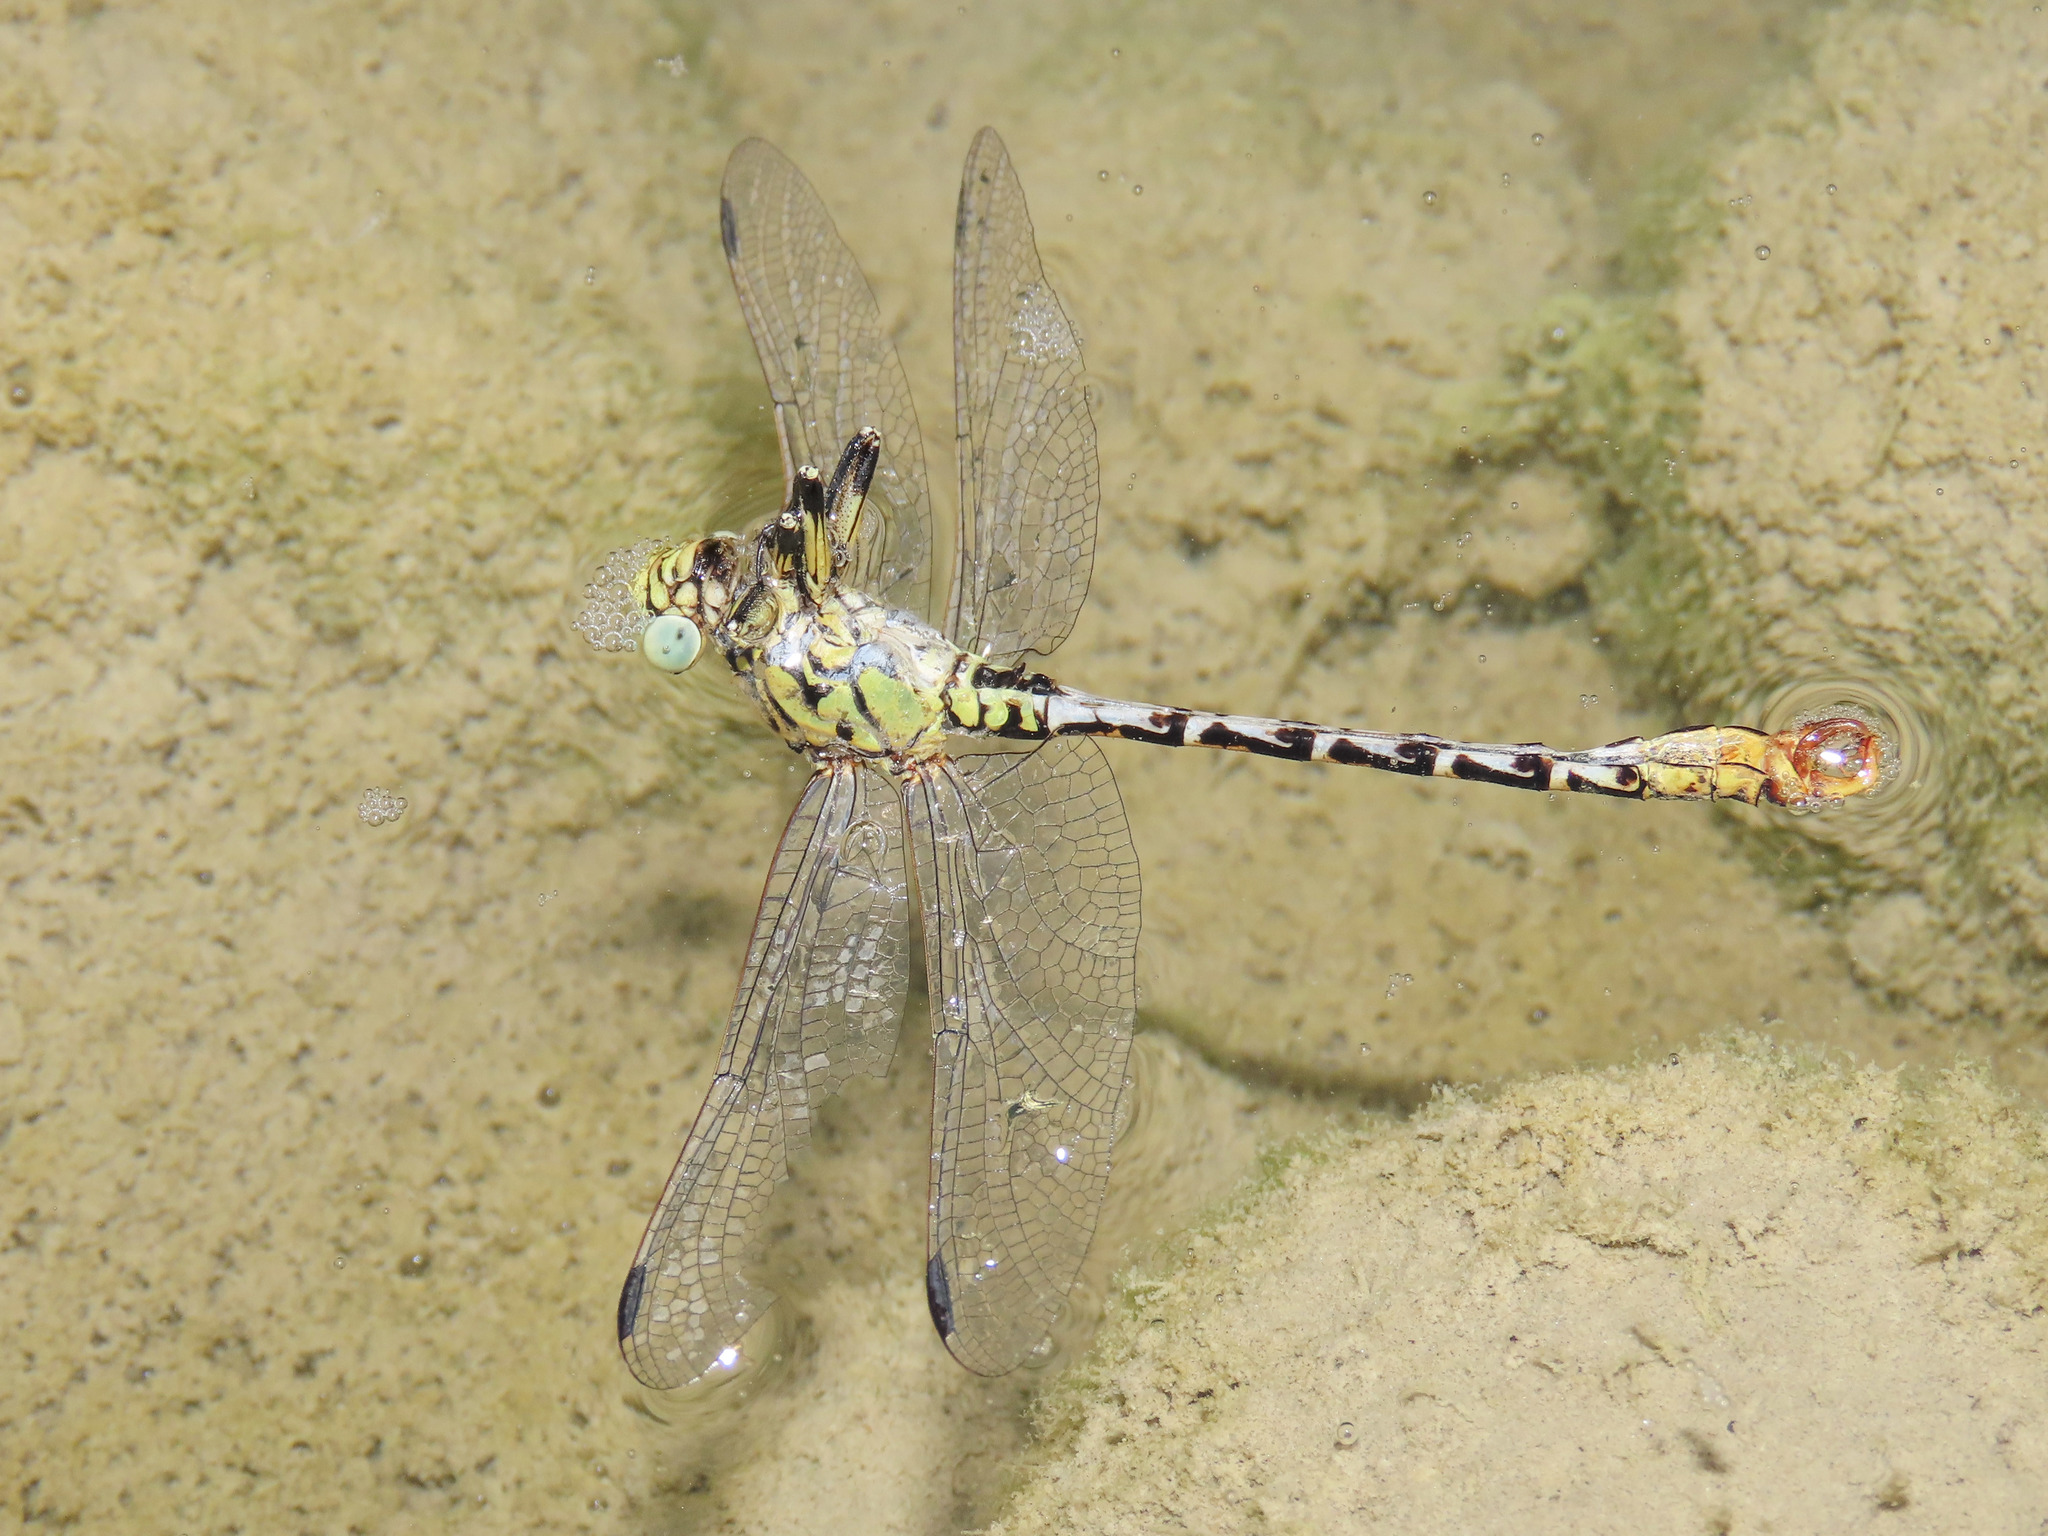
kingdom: Animalia
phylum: Arthropoda
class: Insecta
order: Odonata
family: Gomphidae
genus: Onychogomphus
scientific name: Onychogomphus forcipatus
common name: Small pincertail
